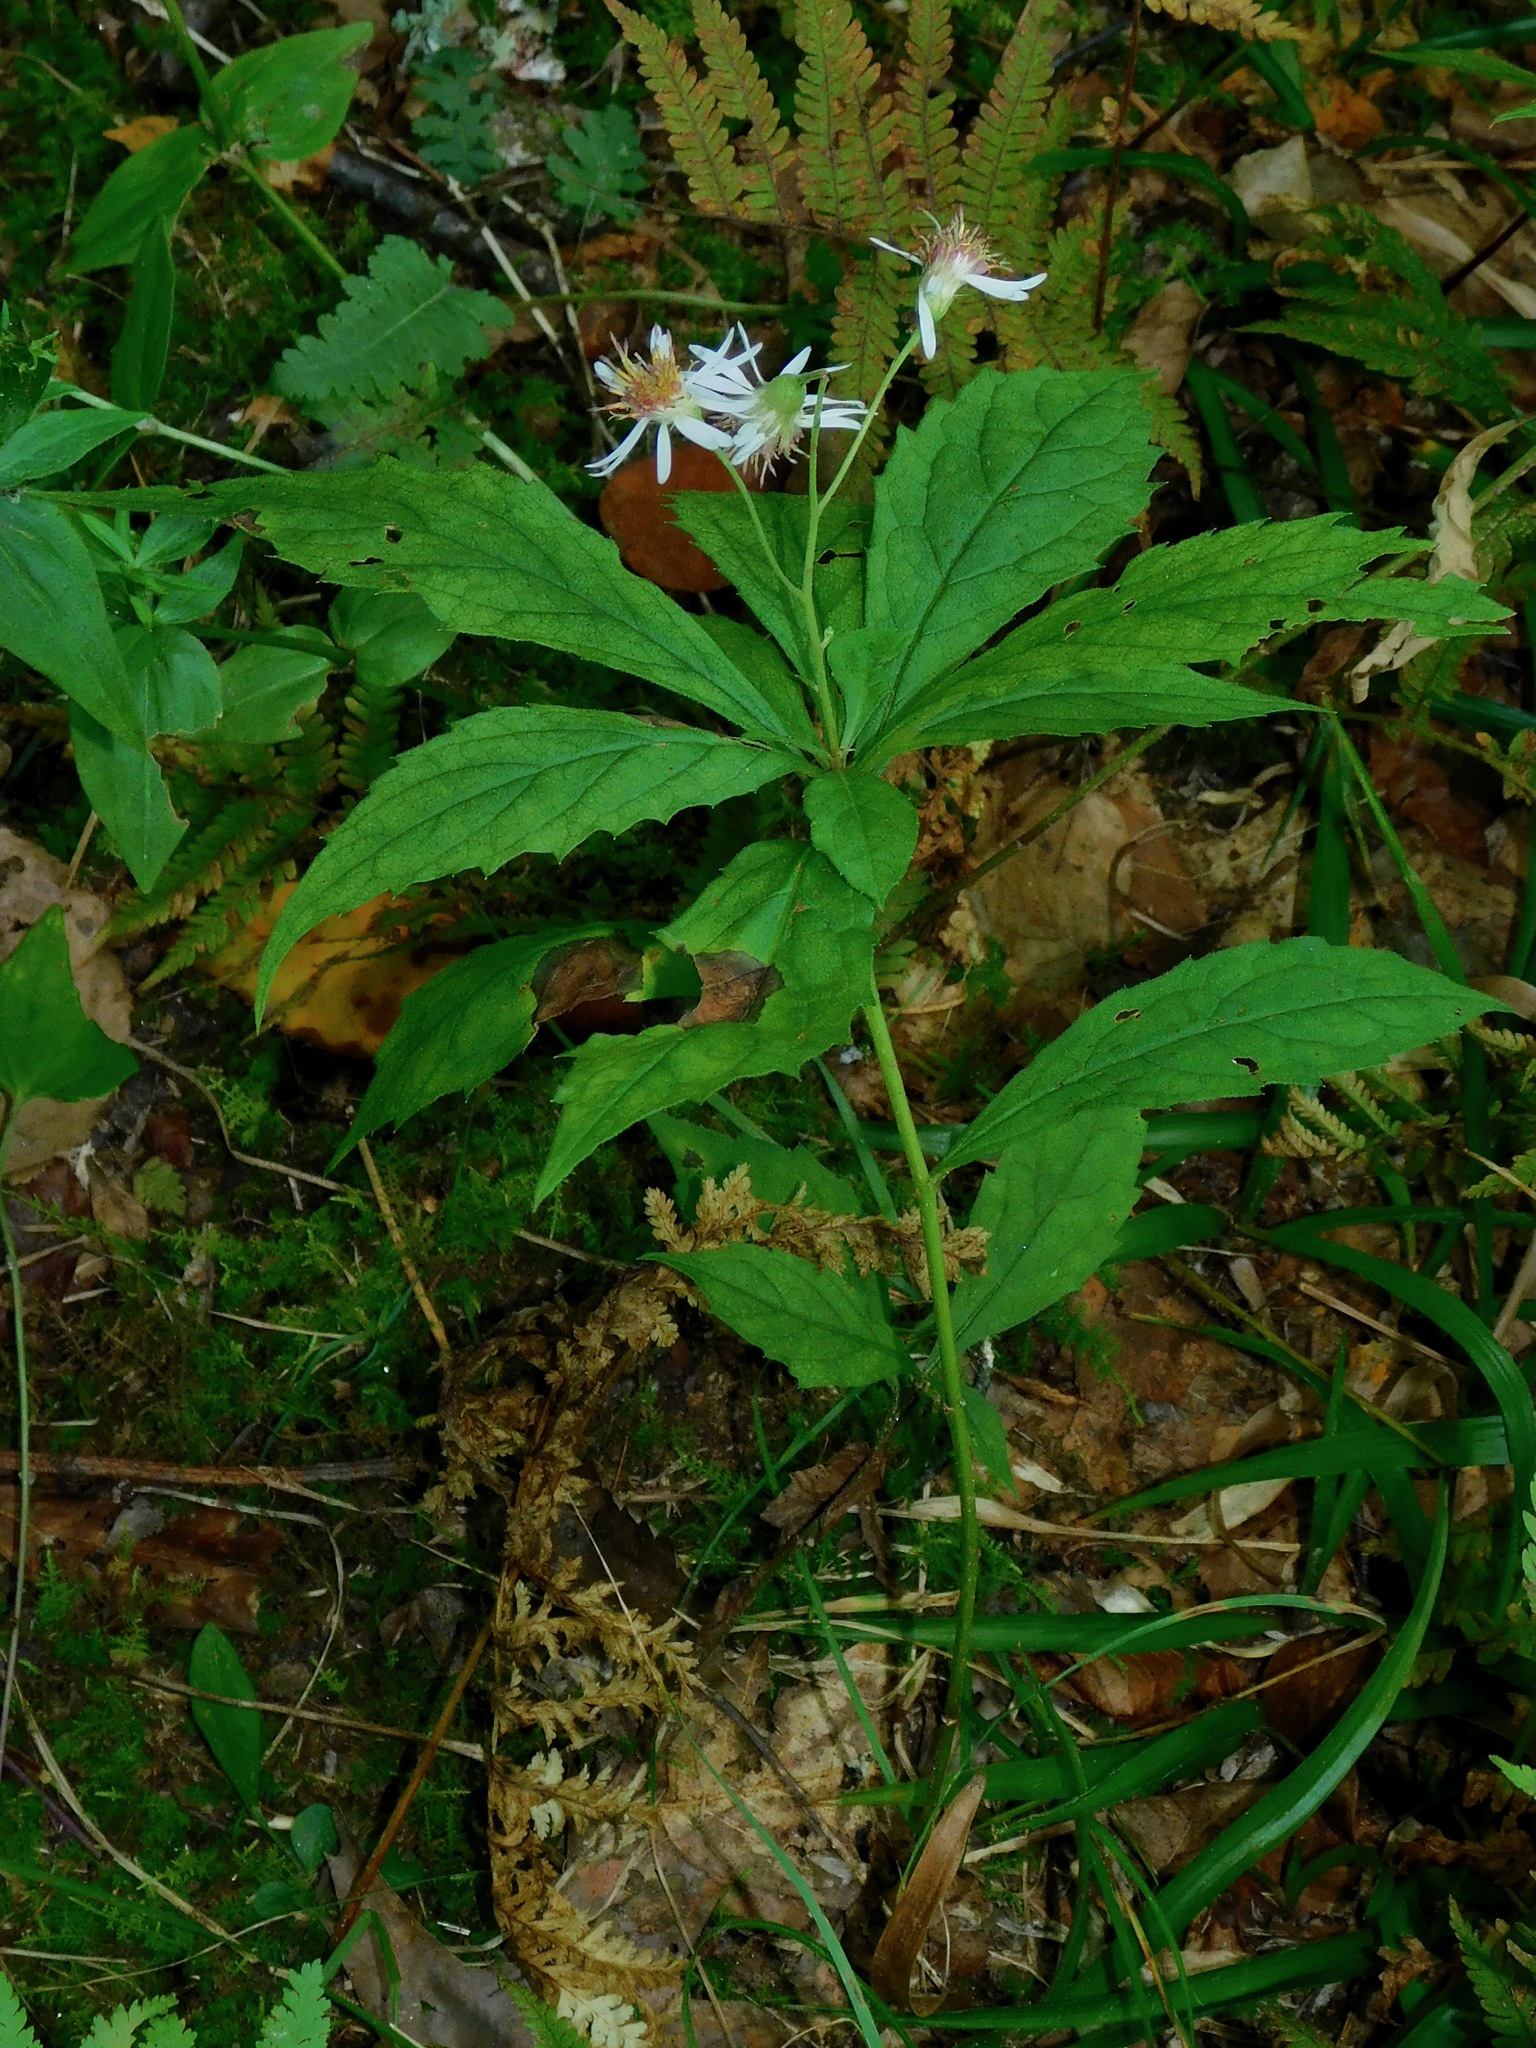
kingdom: Plantae
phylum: Tracheophyta
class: Magnoliopsida
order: Asterales
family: Asteraceae
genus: Oclemena
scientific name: Oclemena acuminata
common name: Mountain aster
